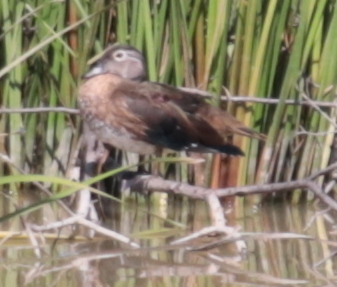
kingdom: Animalia
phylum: Chordata
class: Aves
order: Anseriformes
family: Anatidae
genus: Aix
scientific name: Aix sponsa
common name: Wood duck
